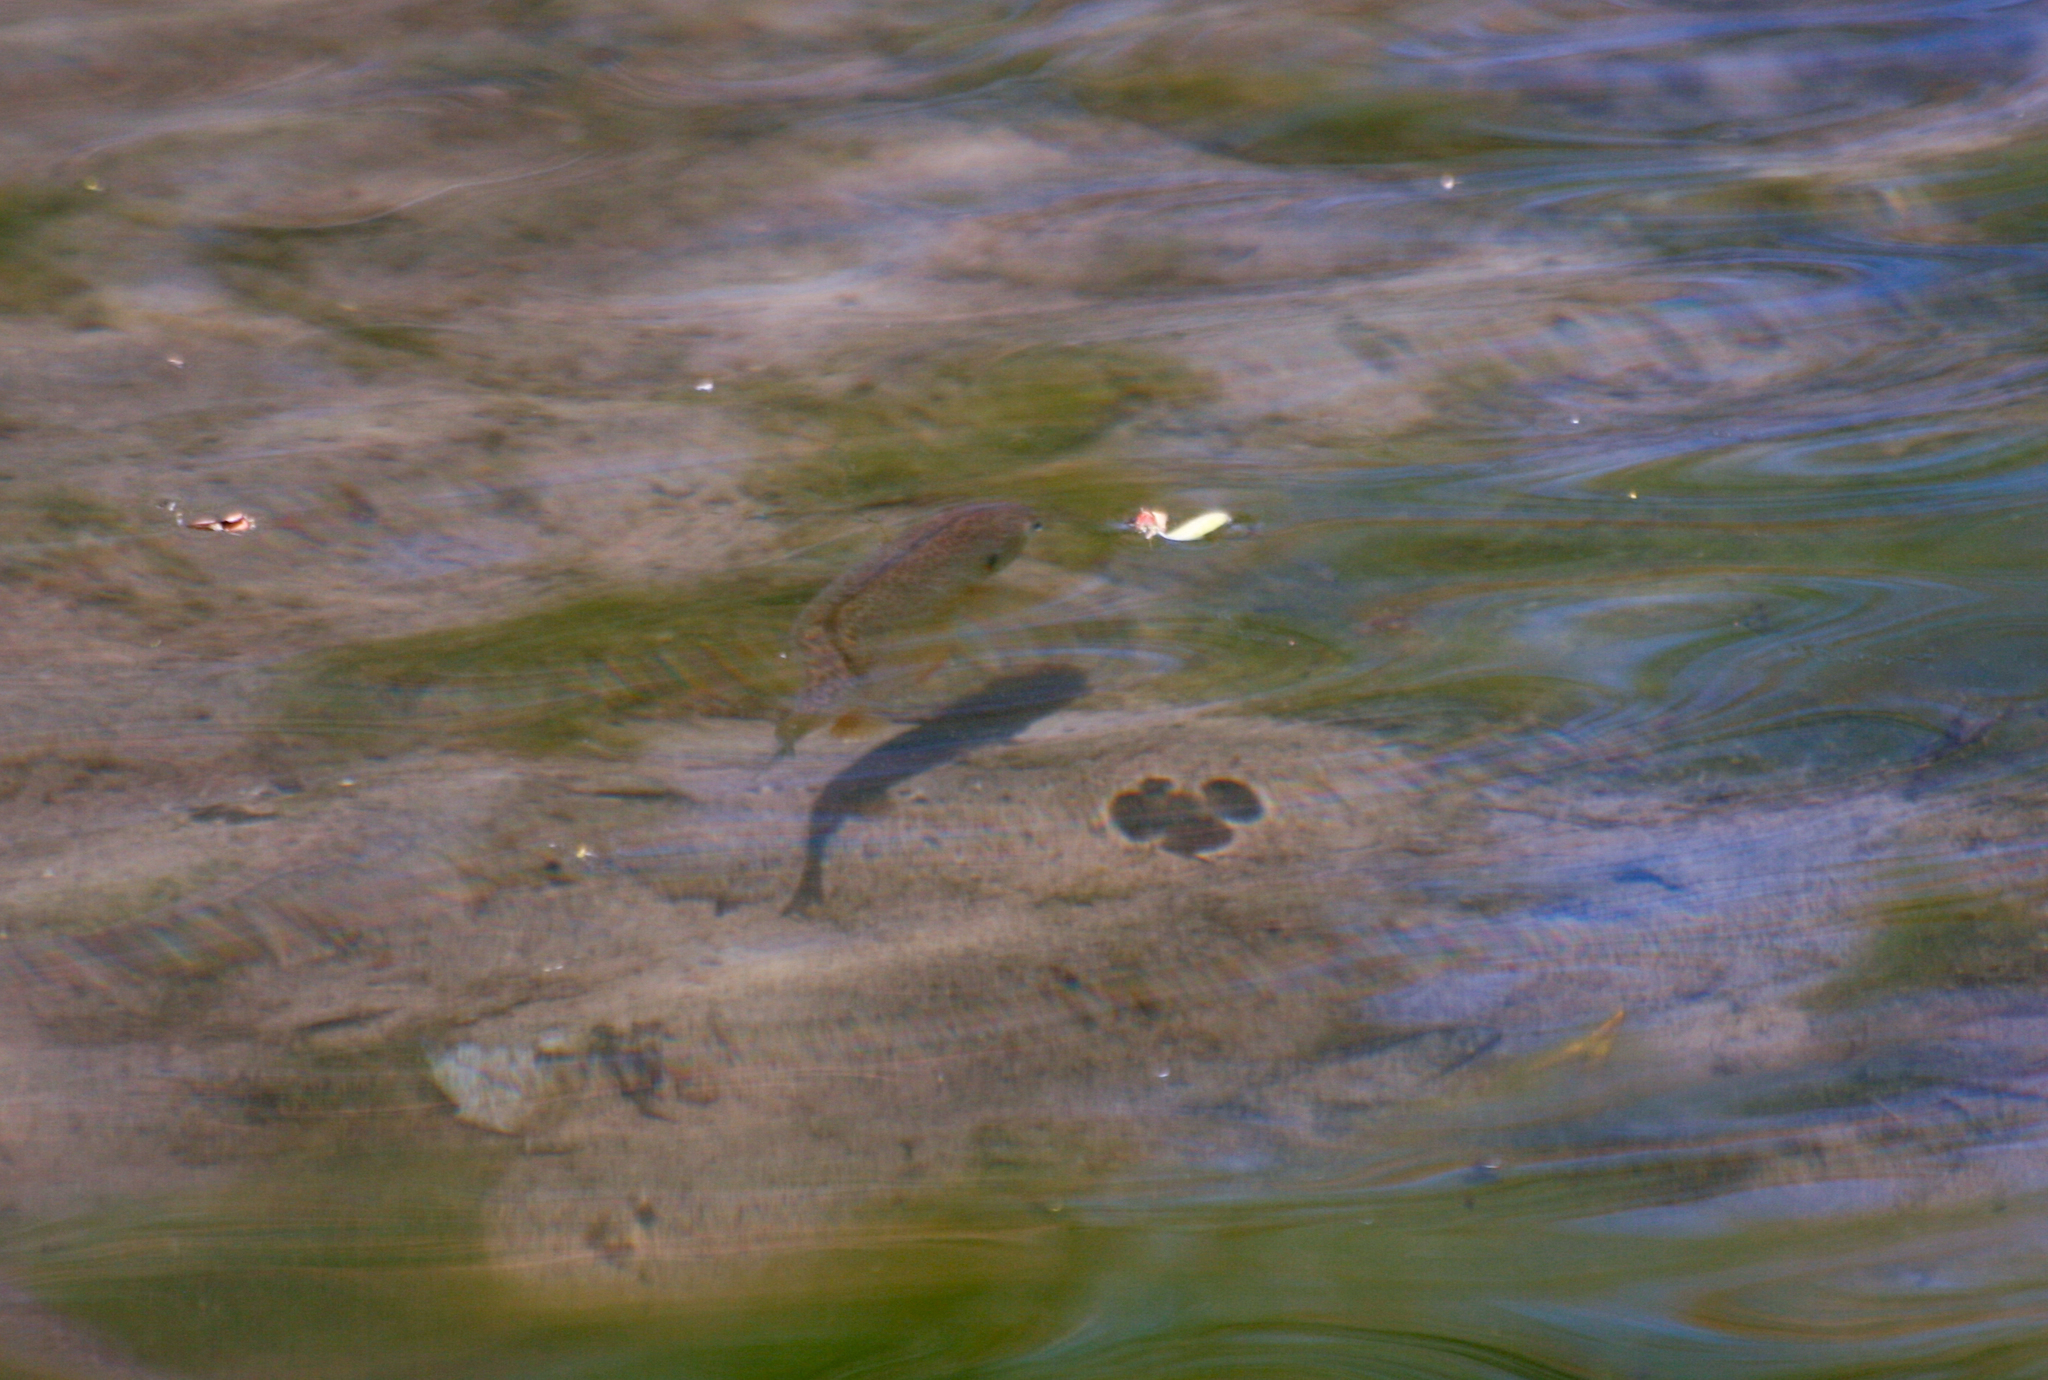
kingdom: Animalia
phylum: Chordata
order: Perciformes
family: Centrarchidae
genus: Lepomis
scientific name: Lepomis gibbosus
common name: Pumpkinseed
